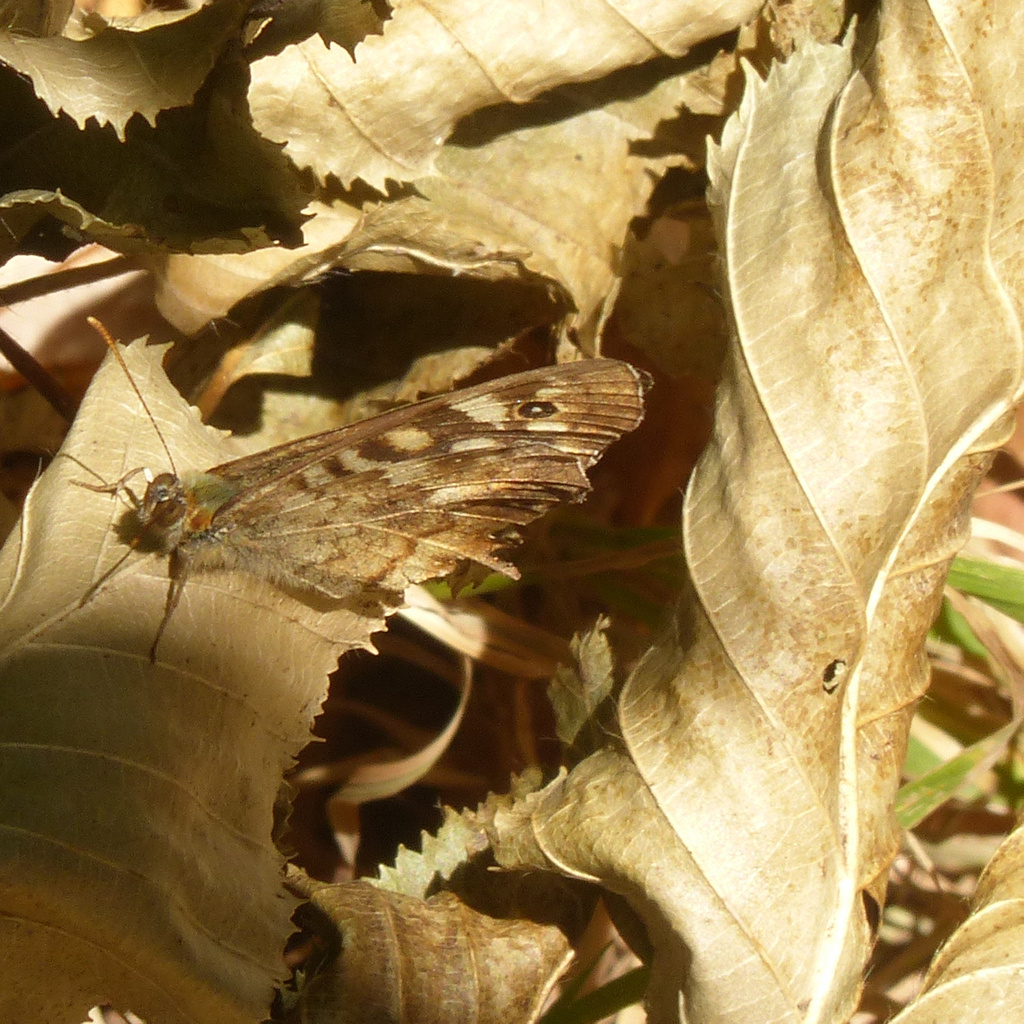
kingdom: Animalia
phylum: Arthropoda
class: Insecta
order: Lepidoptera
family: Nymphalidae
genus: Pararge
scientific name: Pararge aegeria
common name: Speckled wood
